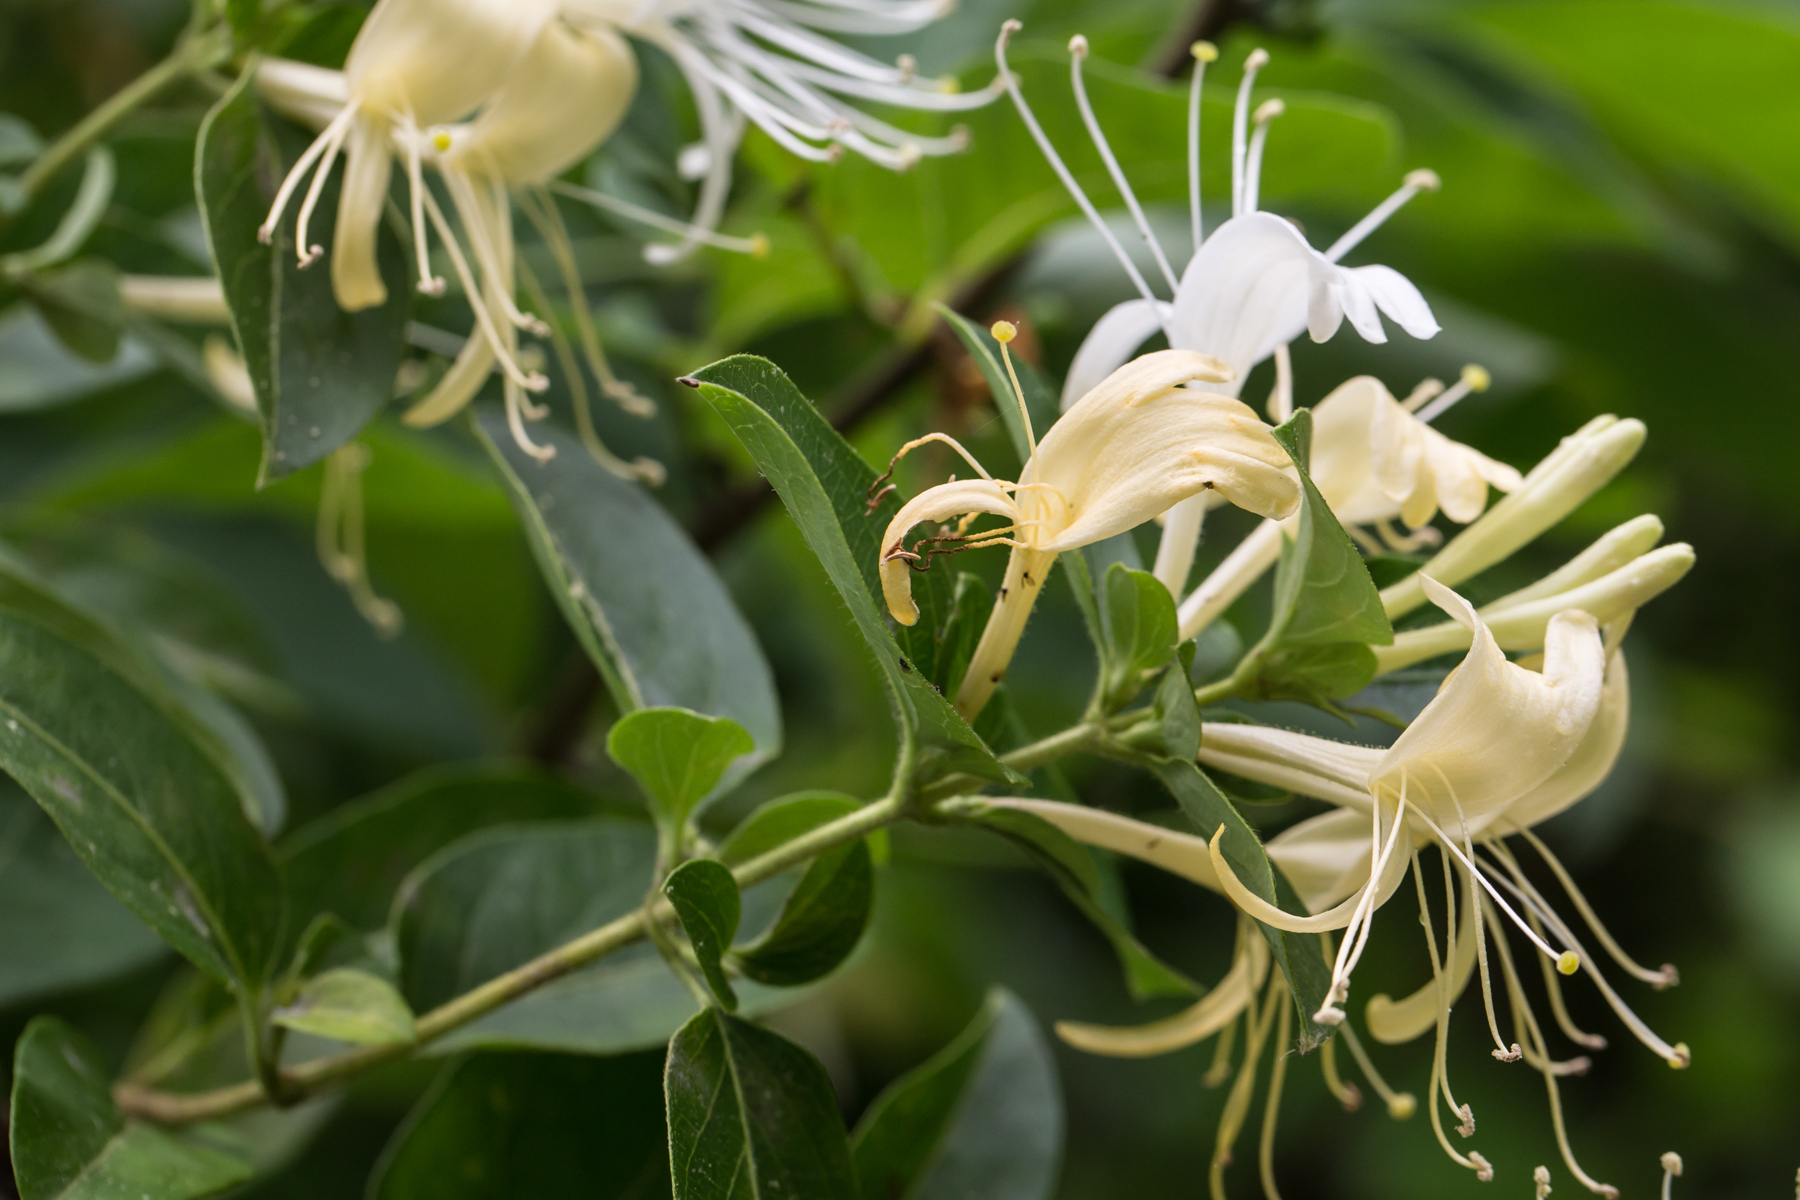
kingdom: Plantae
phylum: Tracheophyta
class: Magnoliopsida
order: Dipsacales
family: Caprifoliaceae
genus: Lonicera
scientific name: Lonicera japonica
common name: Japanese honeysuckle
